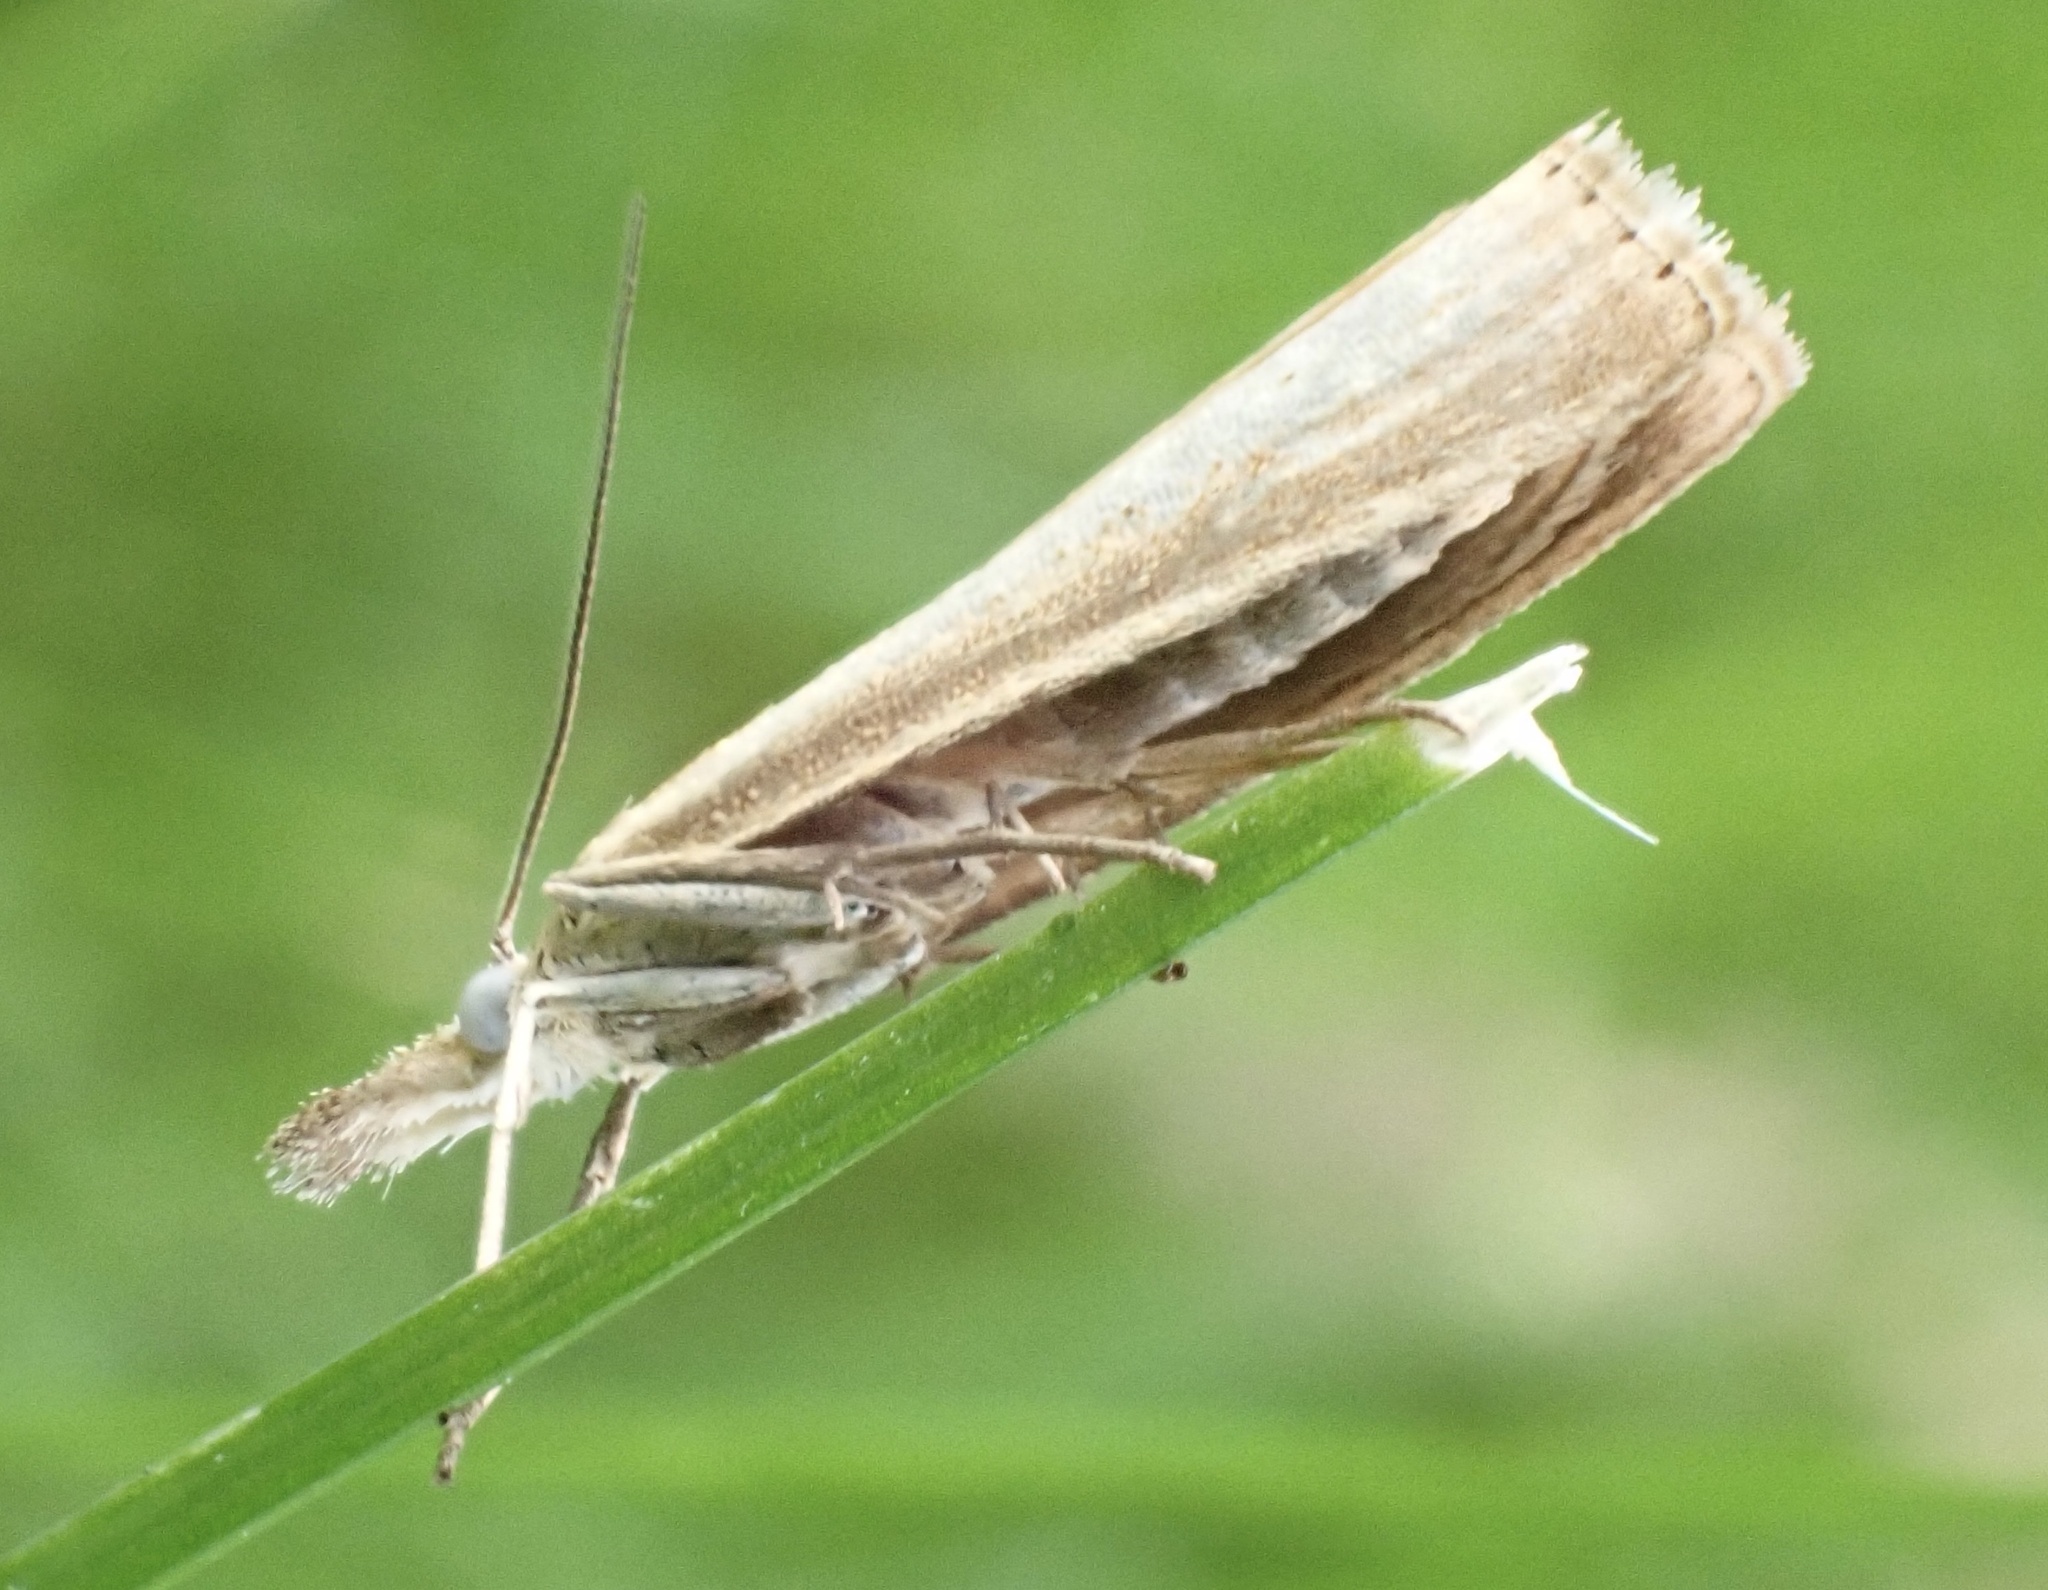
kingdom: Animalia
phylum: Arthropoda
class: Insecta
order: Lepidoptera
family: Crambidae
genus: Agriphila
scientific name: Agriphila straminella
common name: Straw grass-veneer
